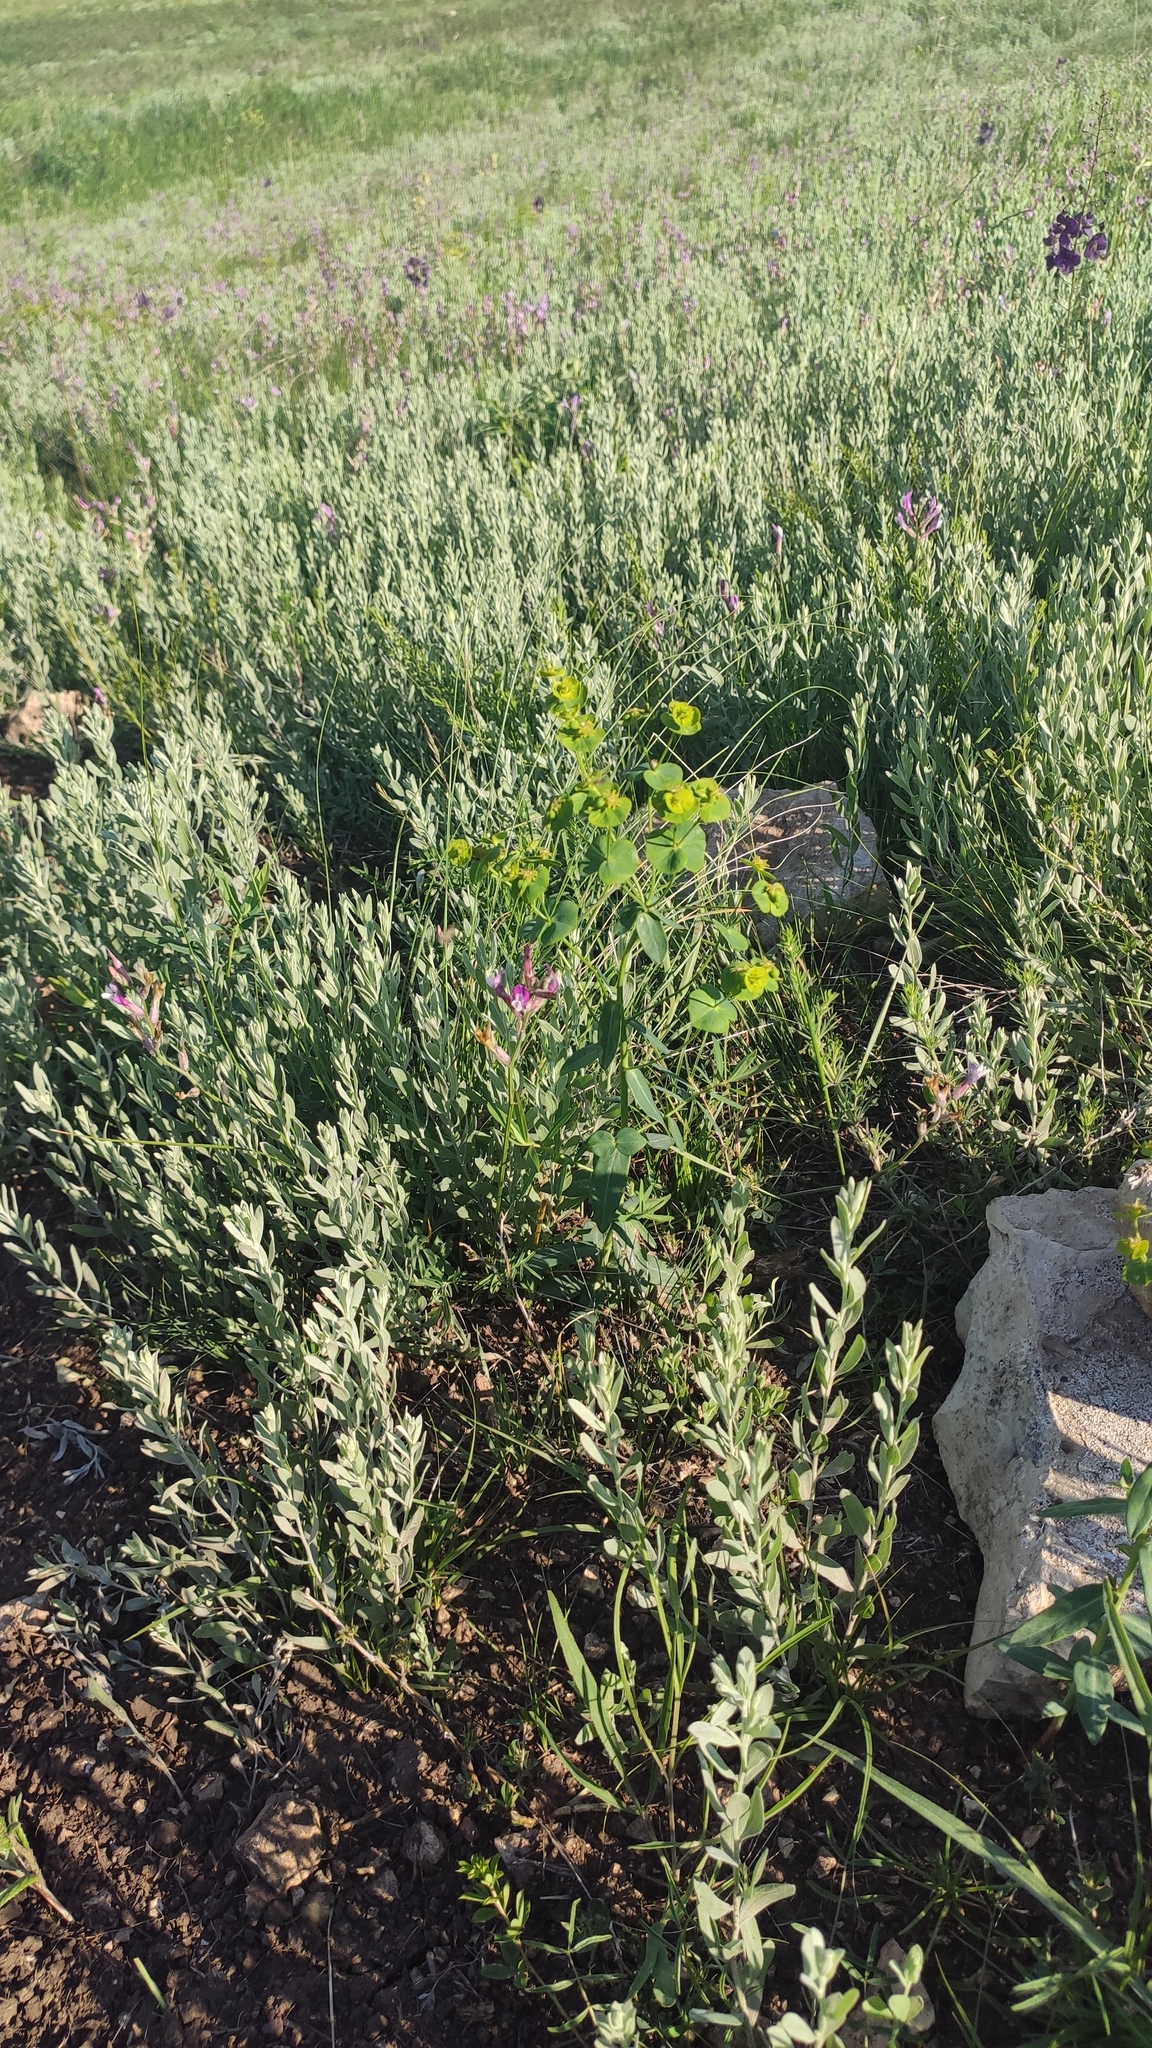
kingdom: Plantae
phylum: Tracheophyta
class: Magnoliopsida
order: Malpighiales
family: Euphorbiaceae
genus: Euphorbia
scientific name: Euphorbia virgata
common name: Leafy spurge
